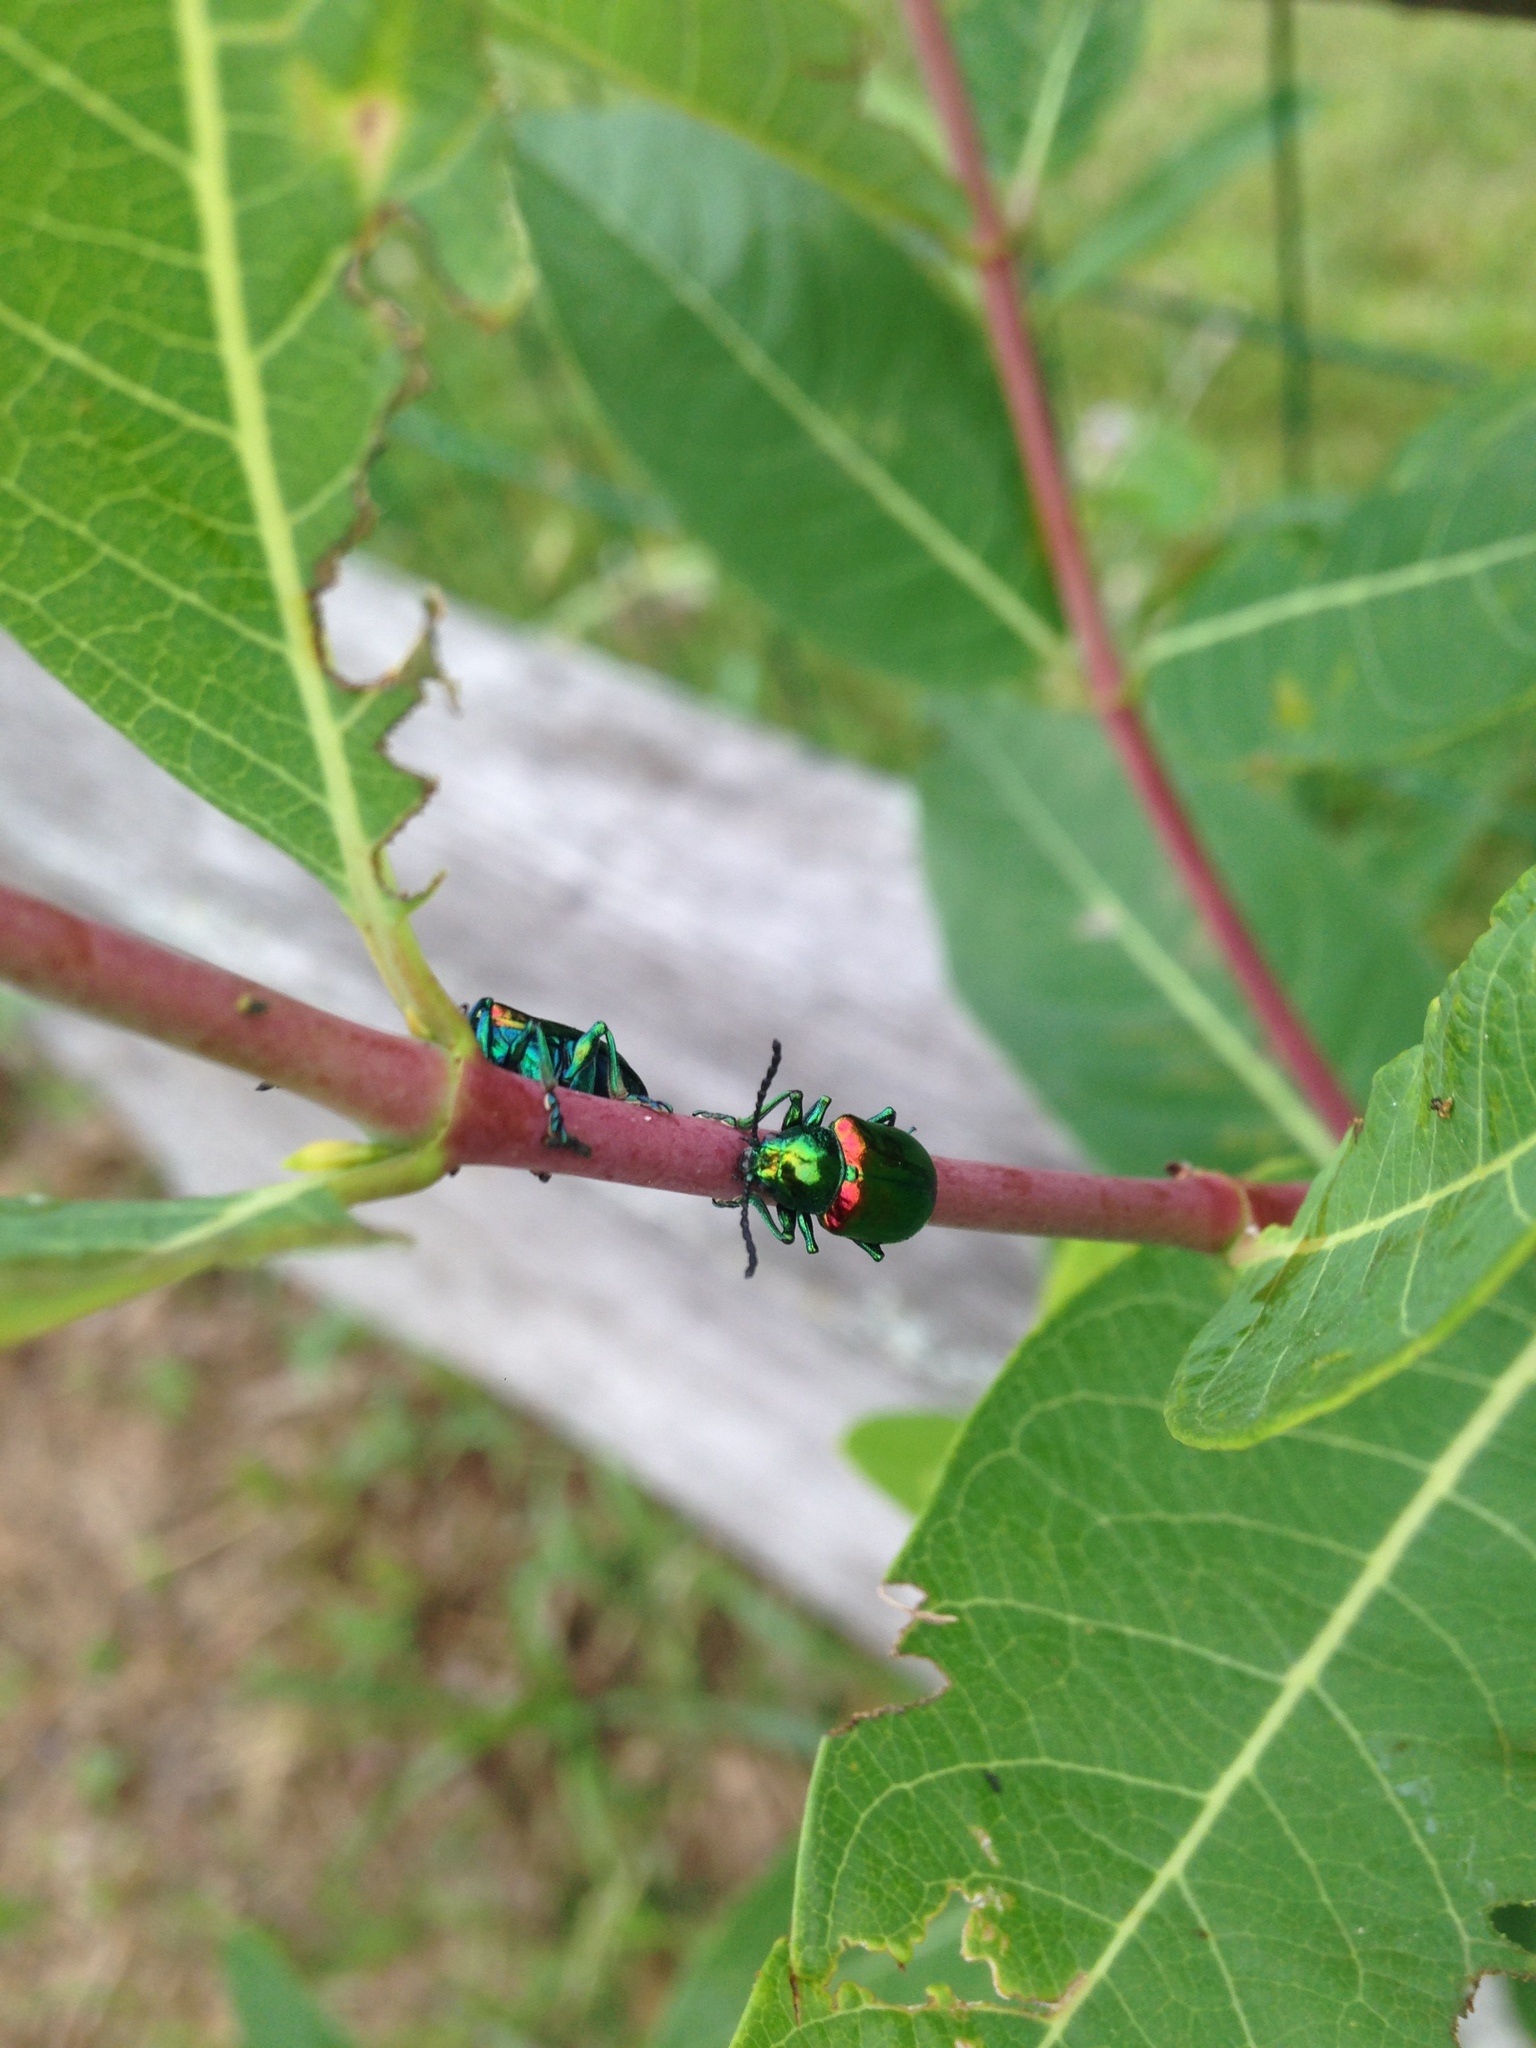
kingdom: Animalia
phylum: Arthropoda
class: Insecta
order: Coleoptera
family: Chrysomelidae
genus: Chrysochus
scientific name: Chrysochus auratus
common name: Dogbane leaf beetle
